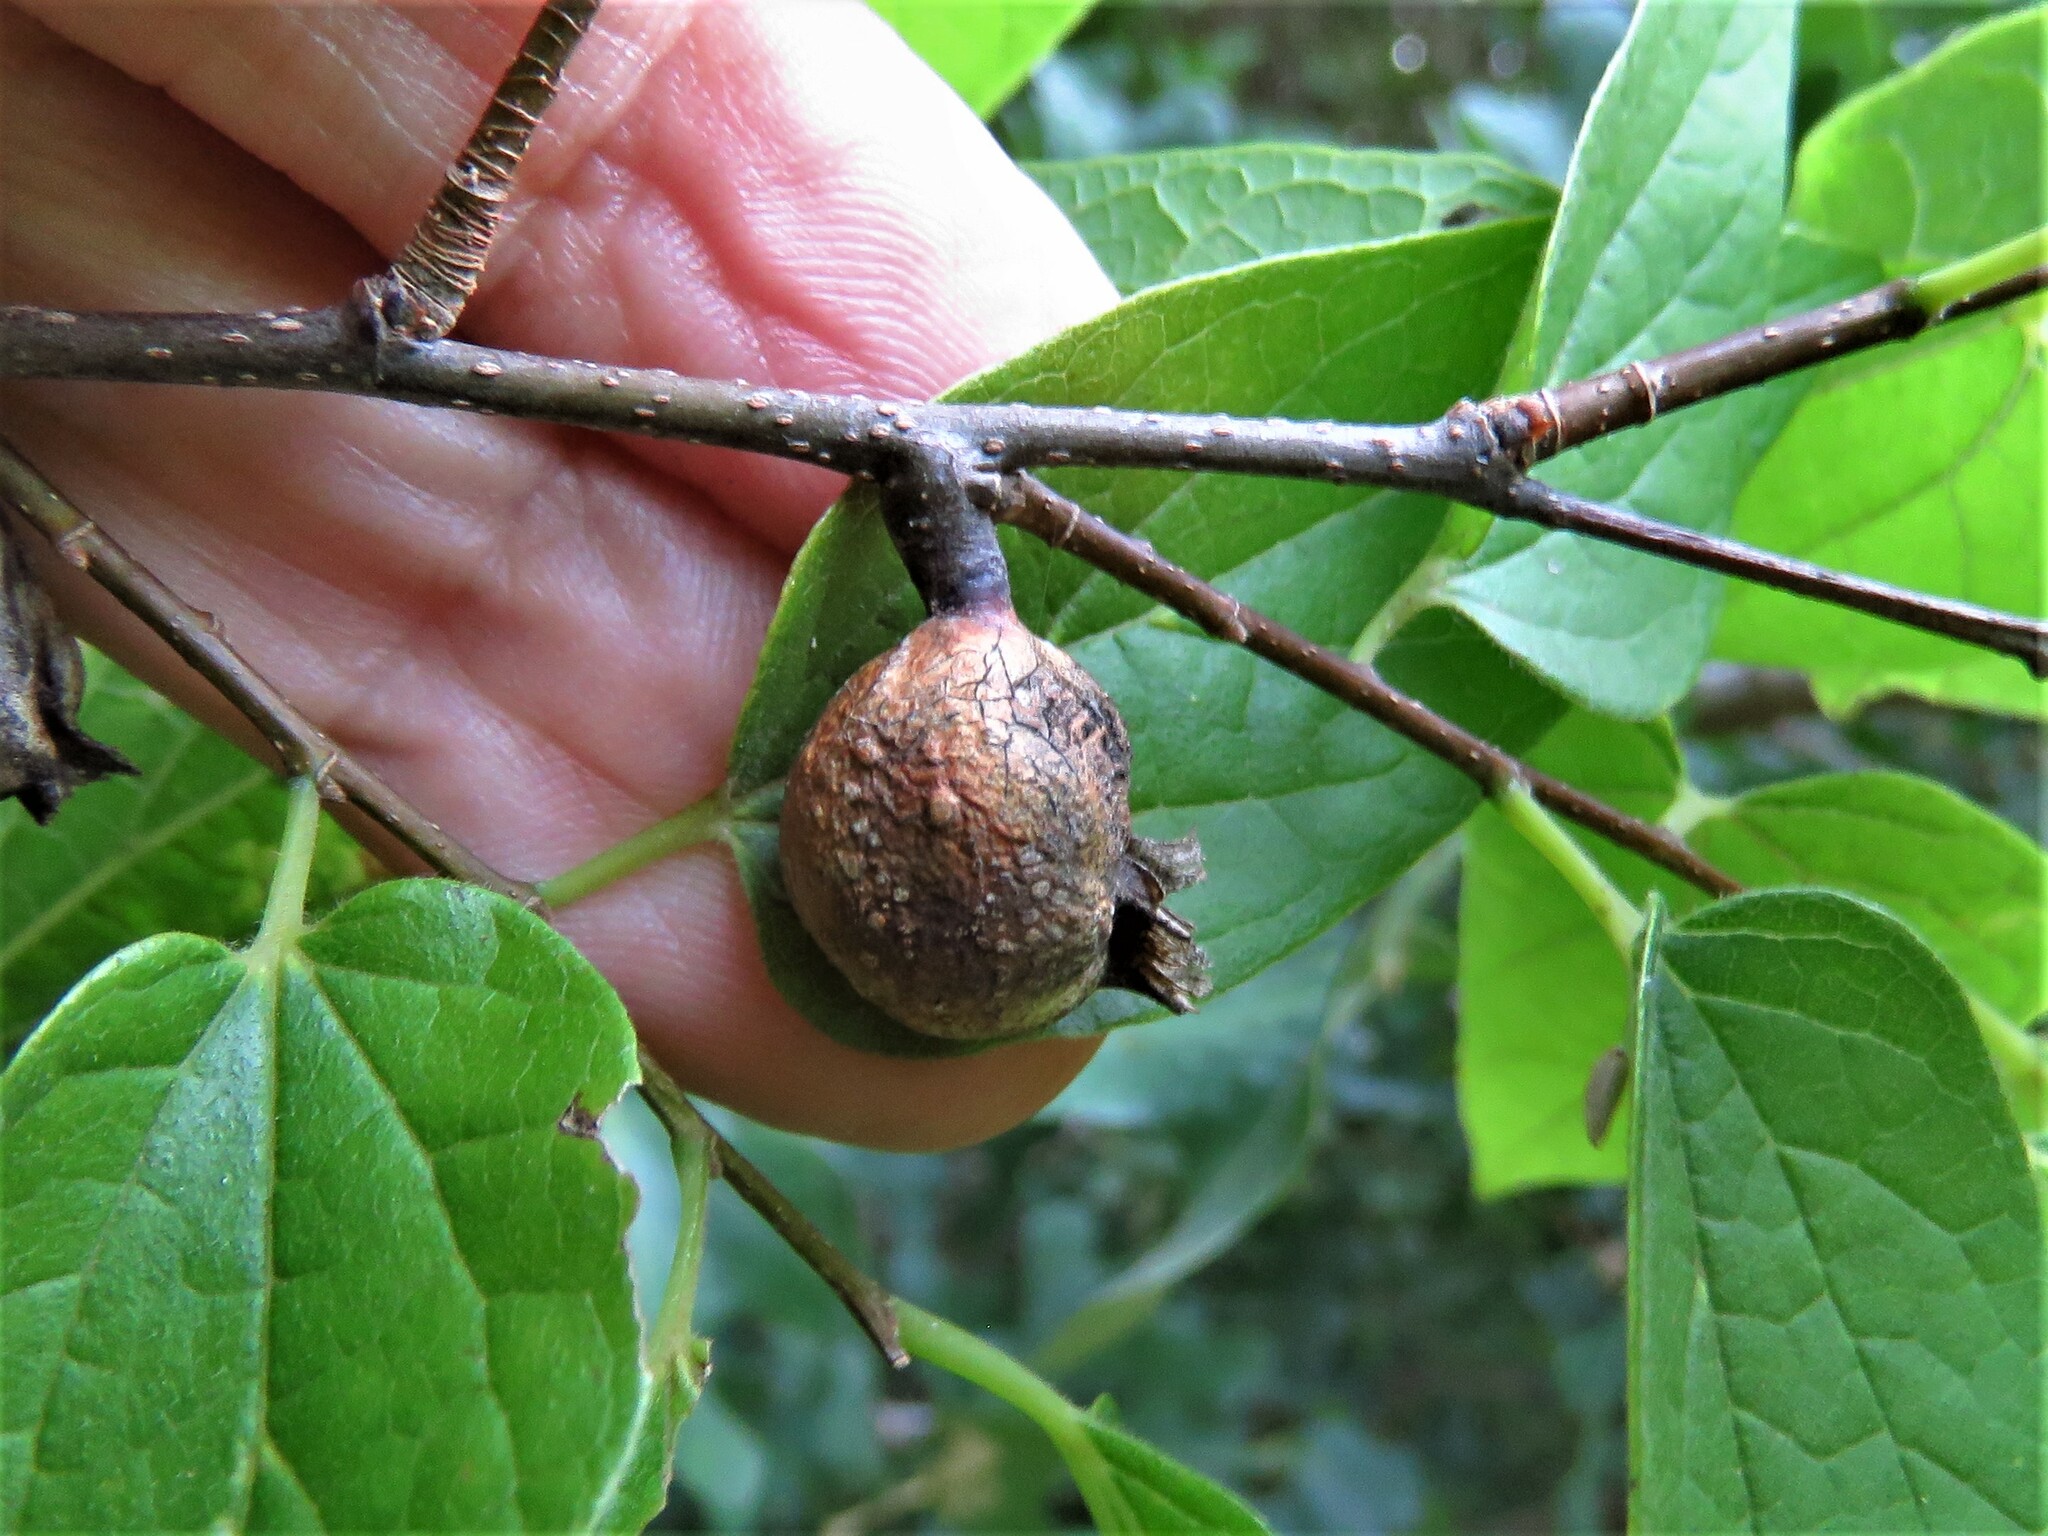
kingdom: Animalia
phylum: Arthropoda
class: Insecta
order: Hemiptera
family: Aphalaridae
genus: Pachypsylla
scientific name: Pachypsylla venusta
